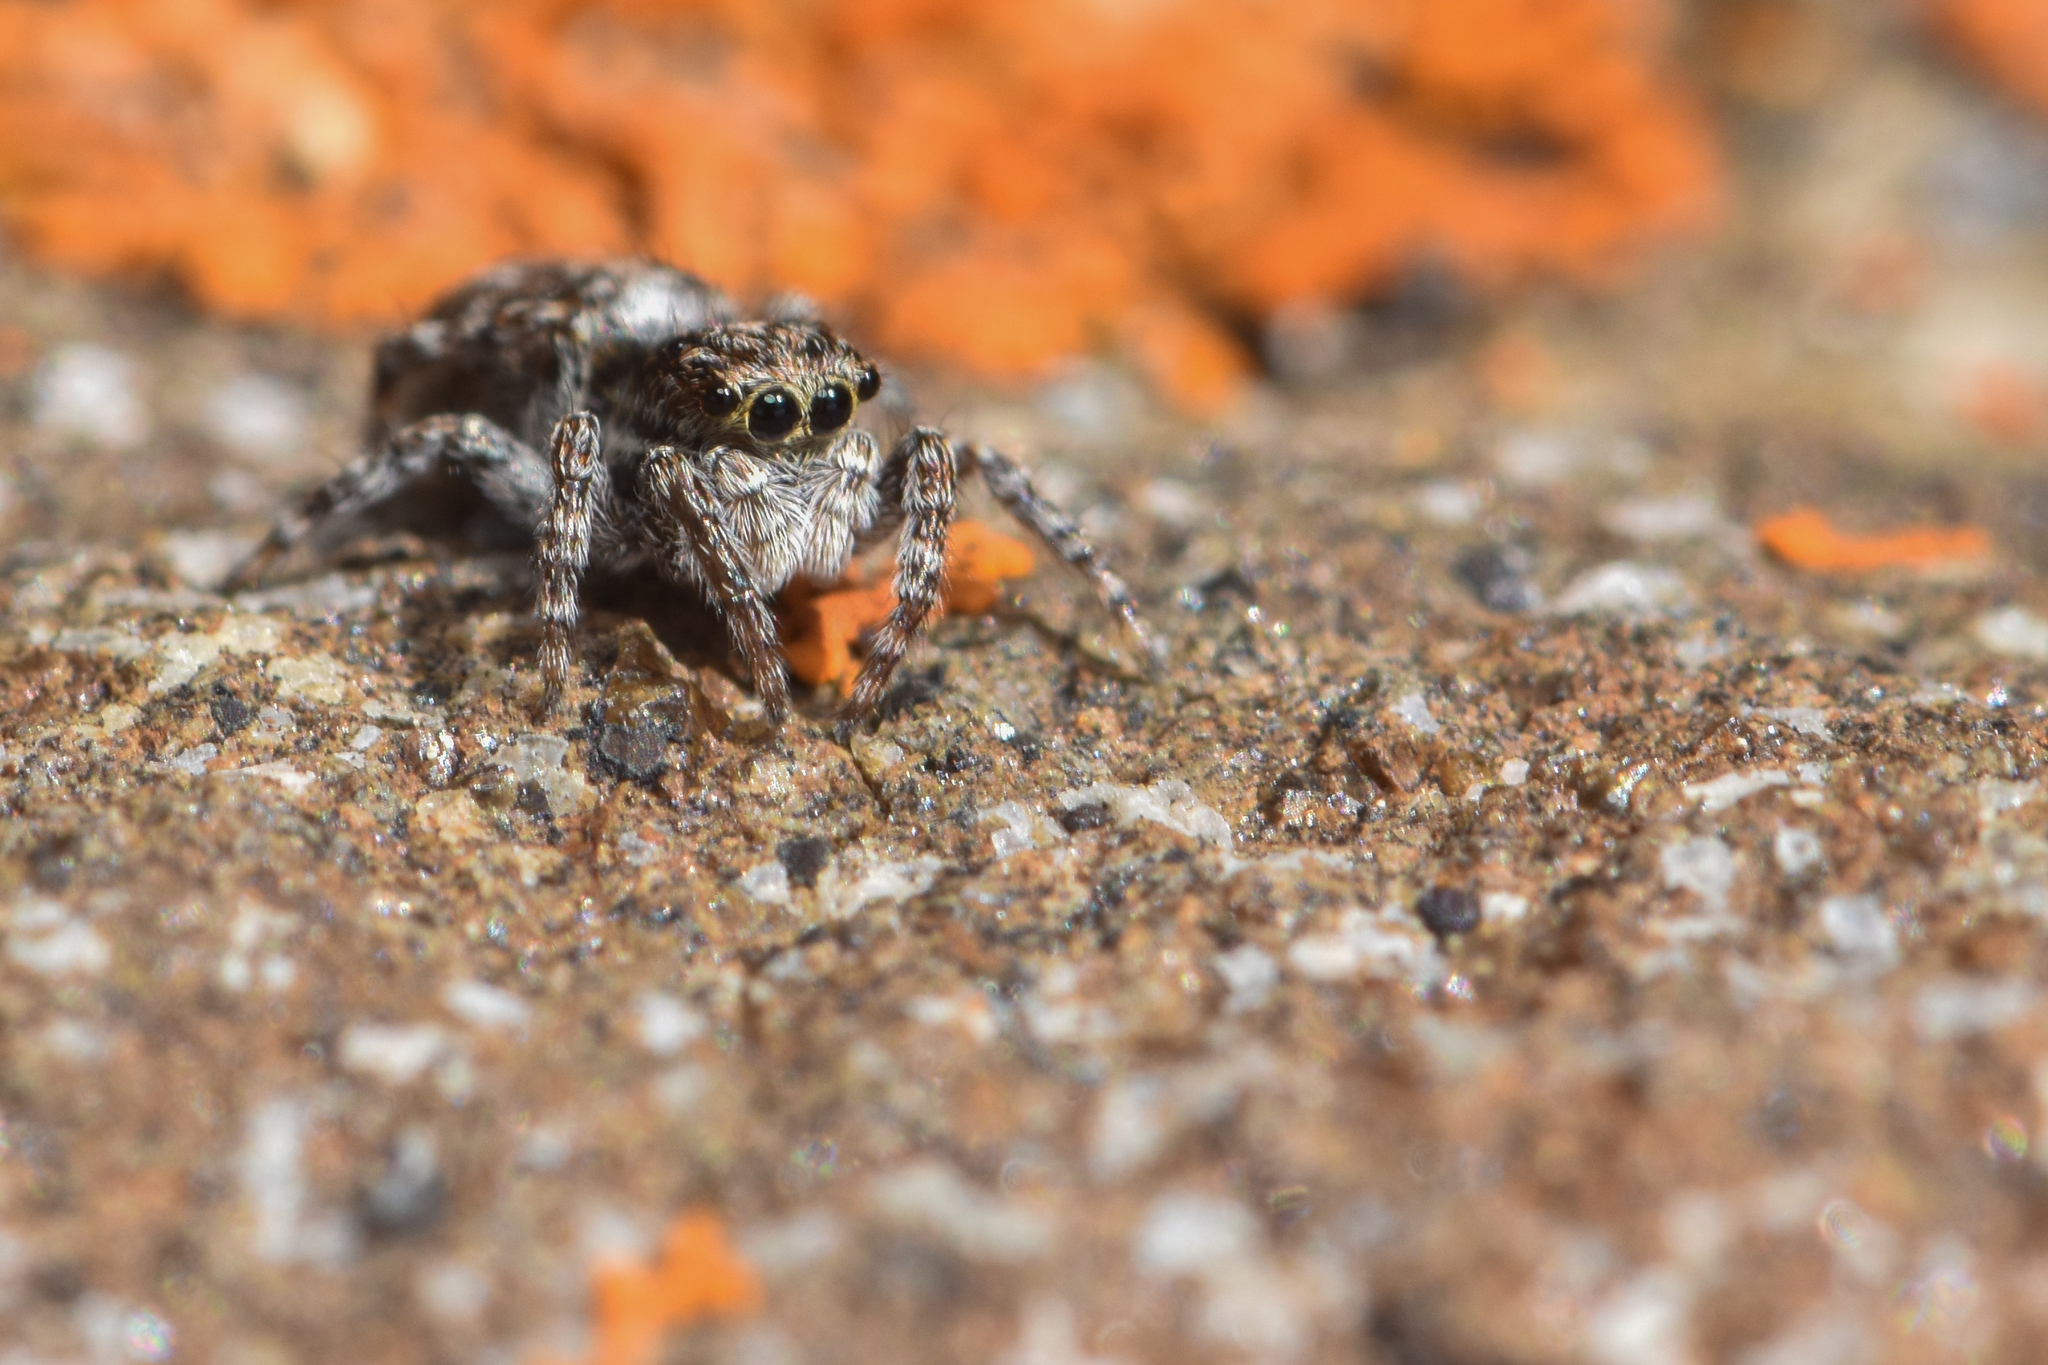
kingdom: Animalia
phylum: Arthropoda
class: Arachnida
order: Araneae
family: Salticidae
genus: Attulus
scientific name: Attulus finschi
